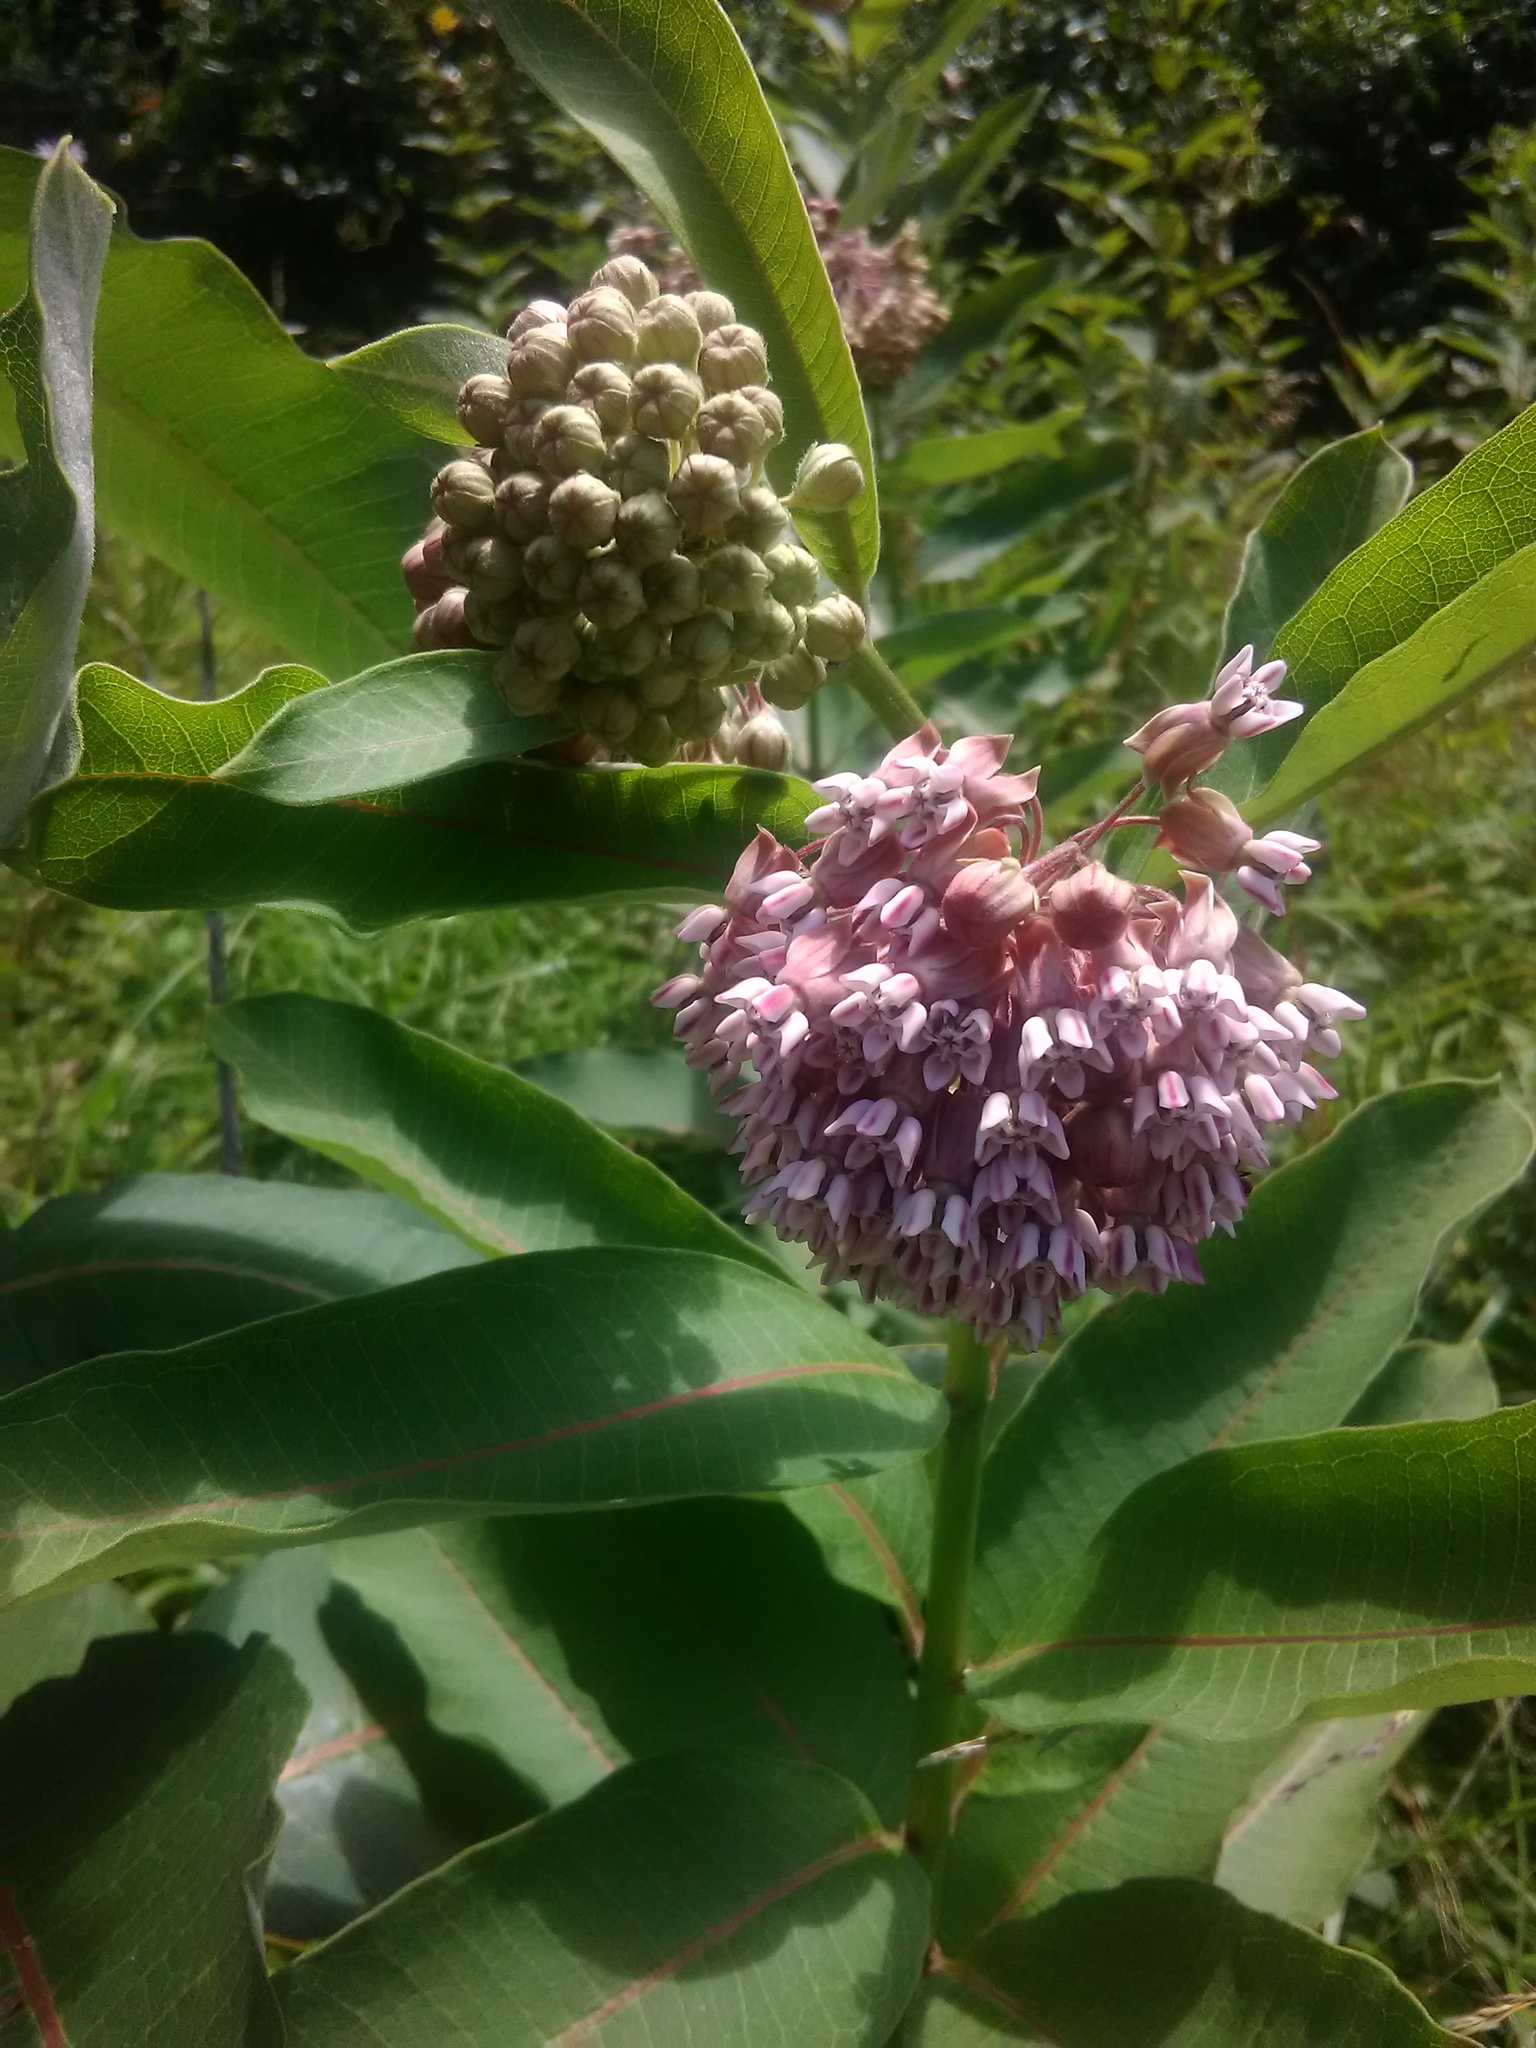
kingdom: Plantae
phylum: Tracheophyta
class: Magnoliopsida
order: Gentianales
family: Apocynaceae
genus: Asclepias
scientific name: Asclepias syriaca
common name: Common milkweed
